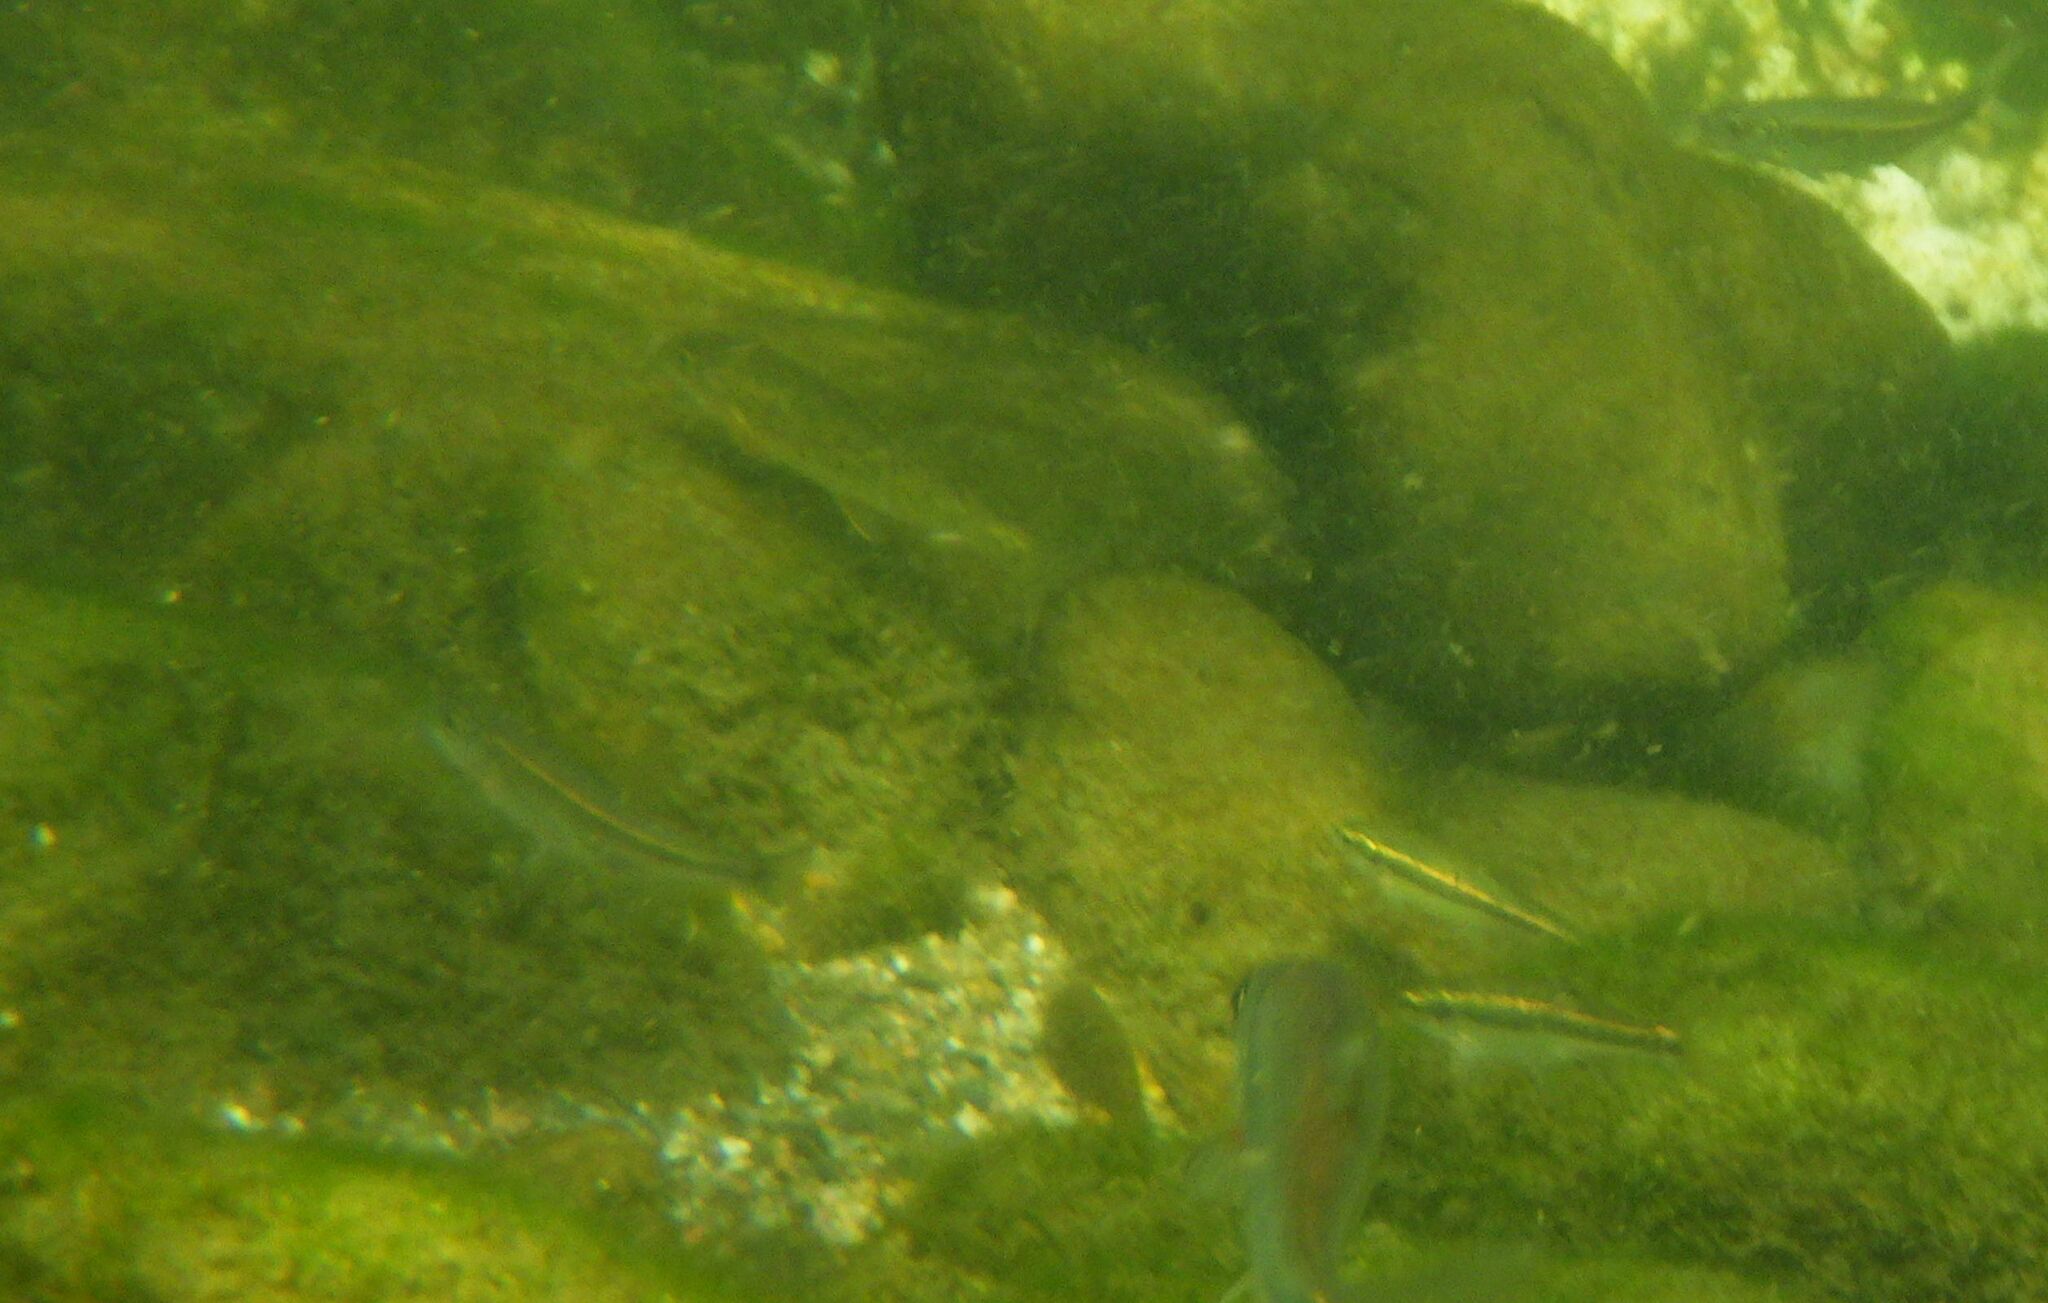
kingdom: Animalia
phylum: Chordata
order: Cypriniformes
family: Cyprinidae
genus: Phoxinus
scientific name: Phoxinus septimaniae
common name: Languedoc minnow
